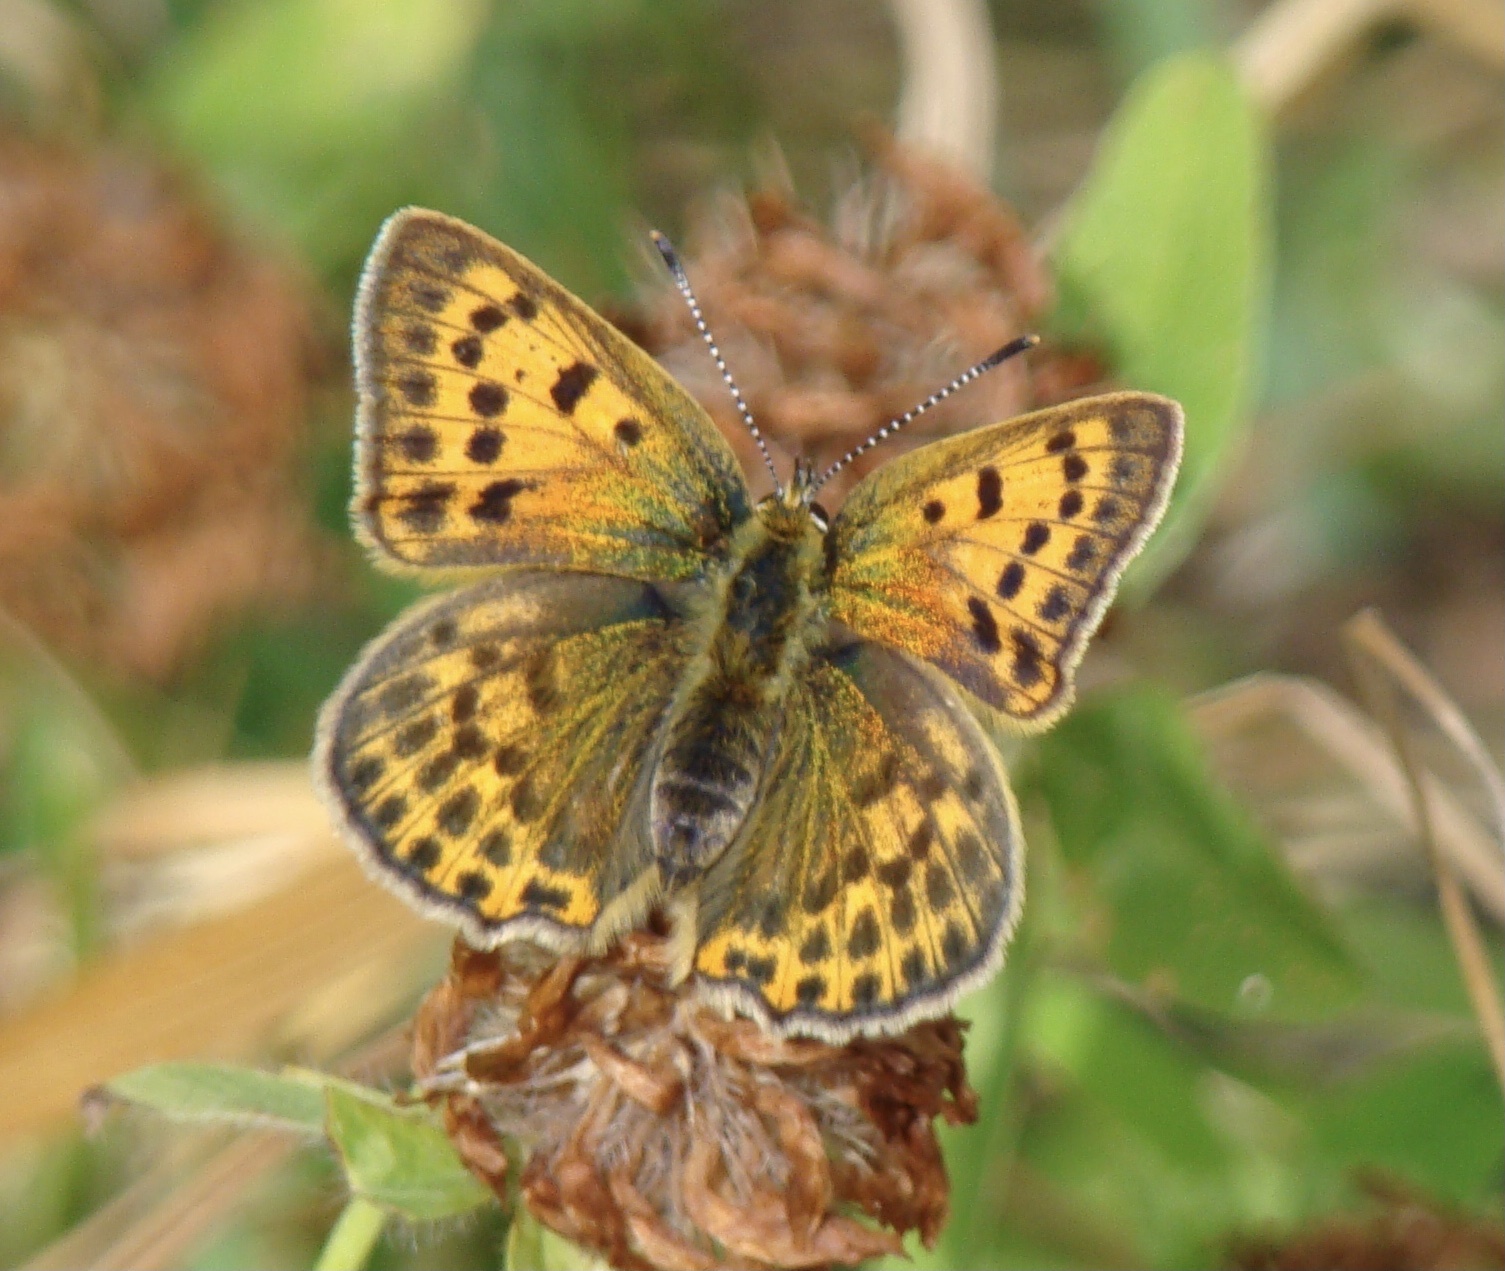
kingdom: Animalia
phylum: Arthropoda
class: Insecta
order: Lepidoptera
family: Lycaenidae
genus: Lycaena
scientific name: Lycaena virgaureae
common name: Scarce copper
